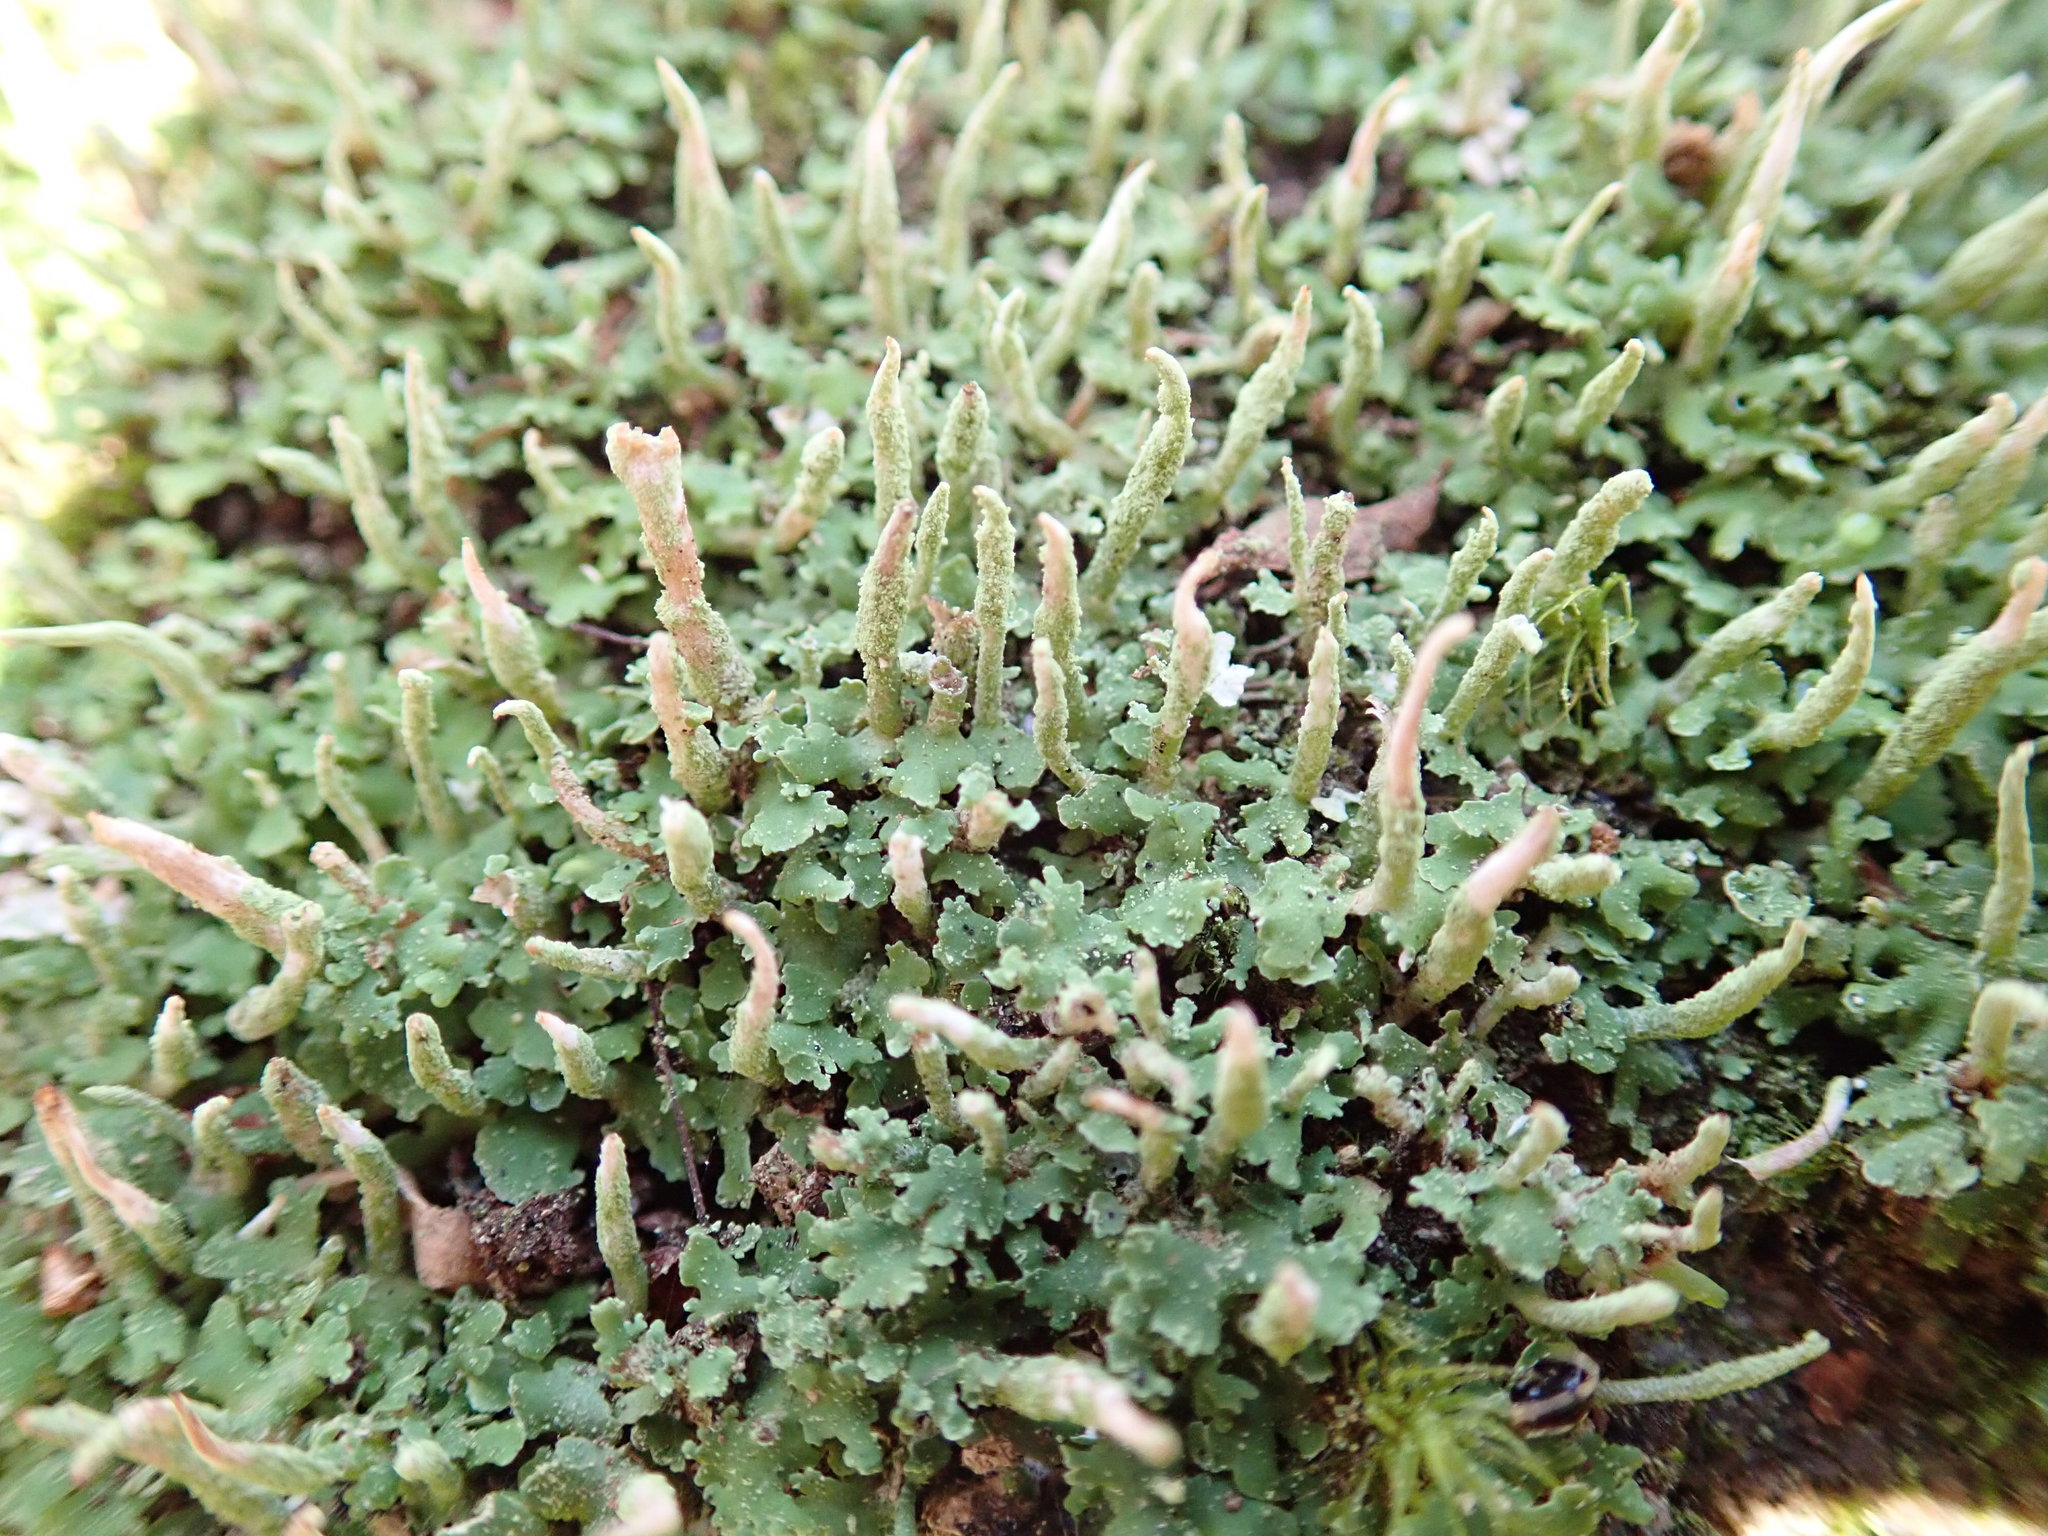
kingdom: Fungi
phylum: Ascomycota
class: Lecanoromycetes
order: Lecanorales
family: Cladoniaceae
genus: Cladonia
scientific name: Cladonia
